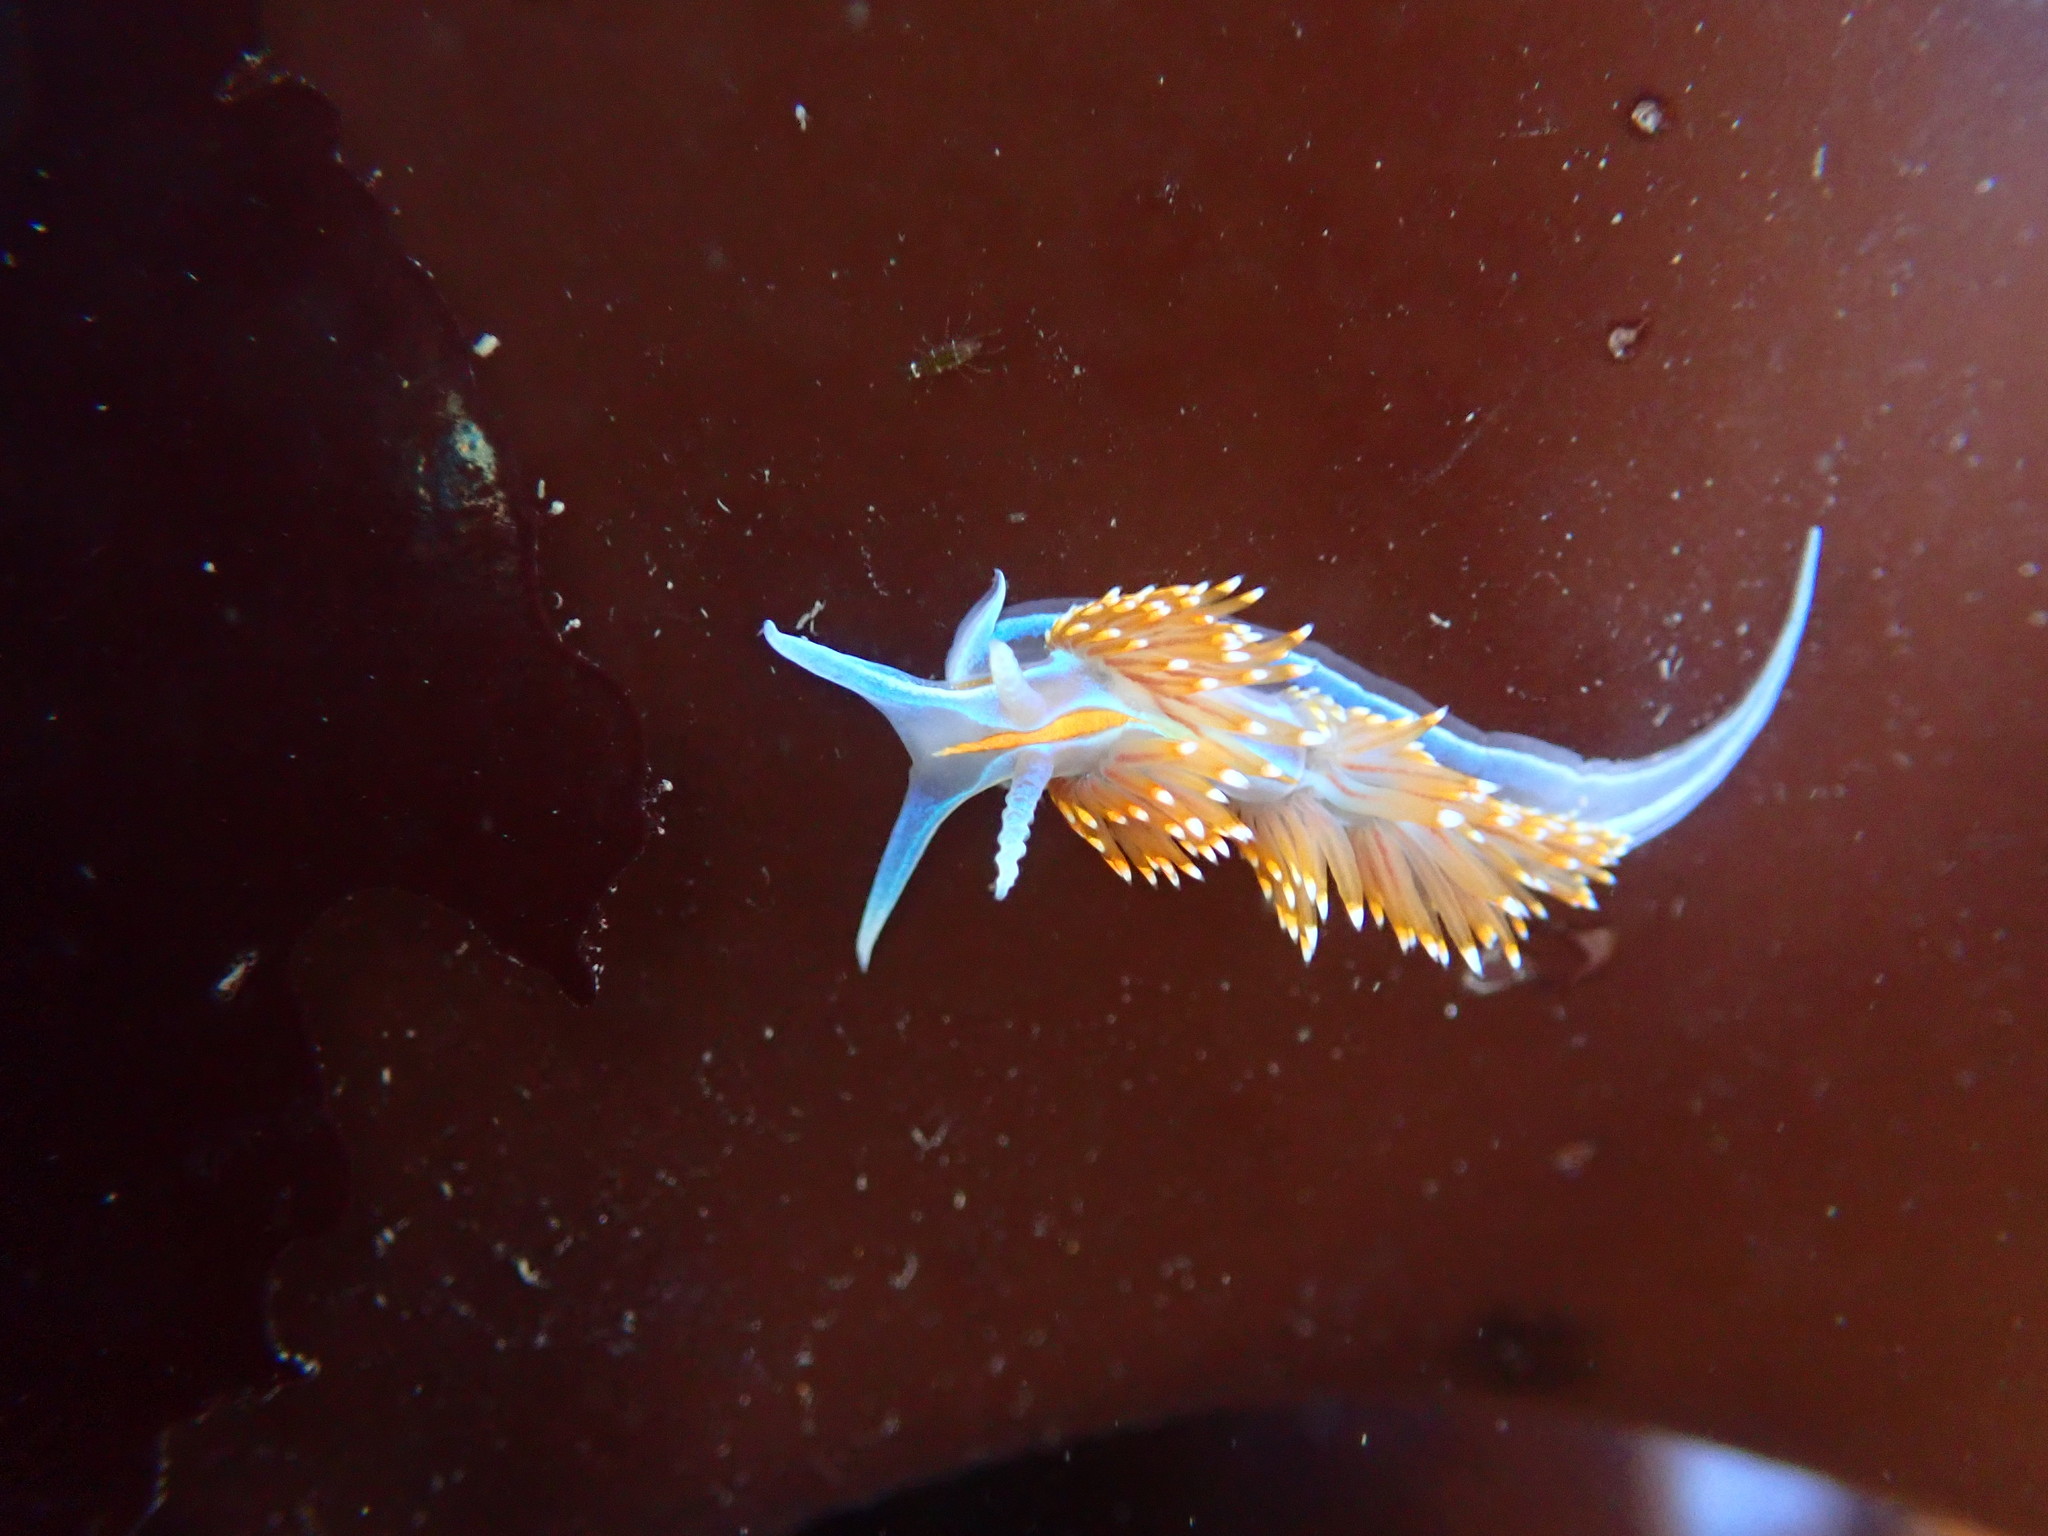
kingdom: Animalia
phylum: Mollusca
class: Gastropoda
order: Nudibranchia
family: Myrrhinidae
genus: Hermissenda
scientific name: Hermissenda opalescens
